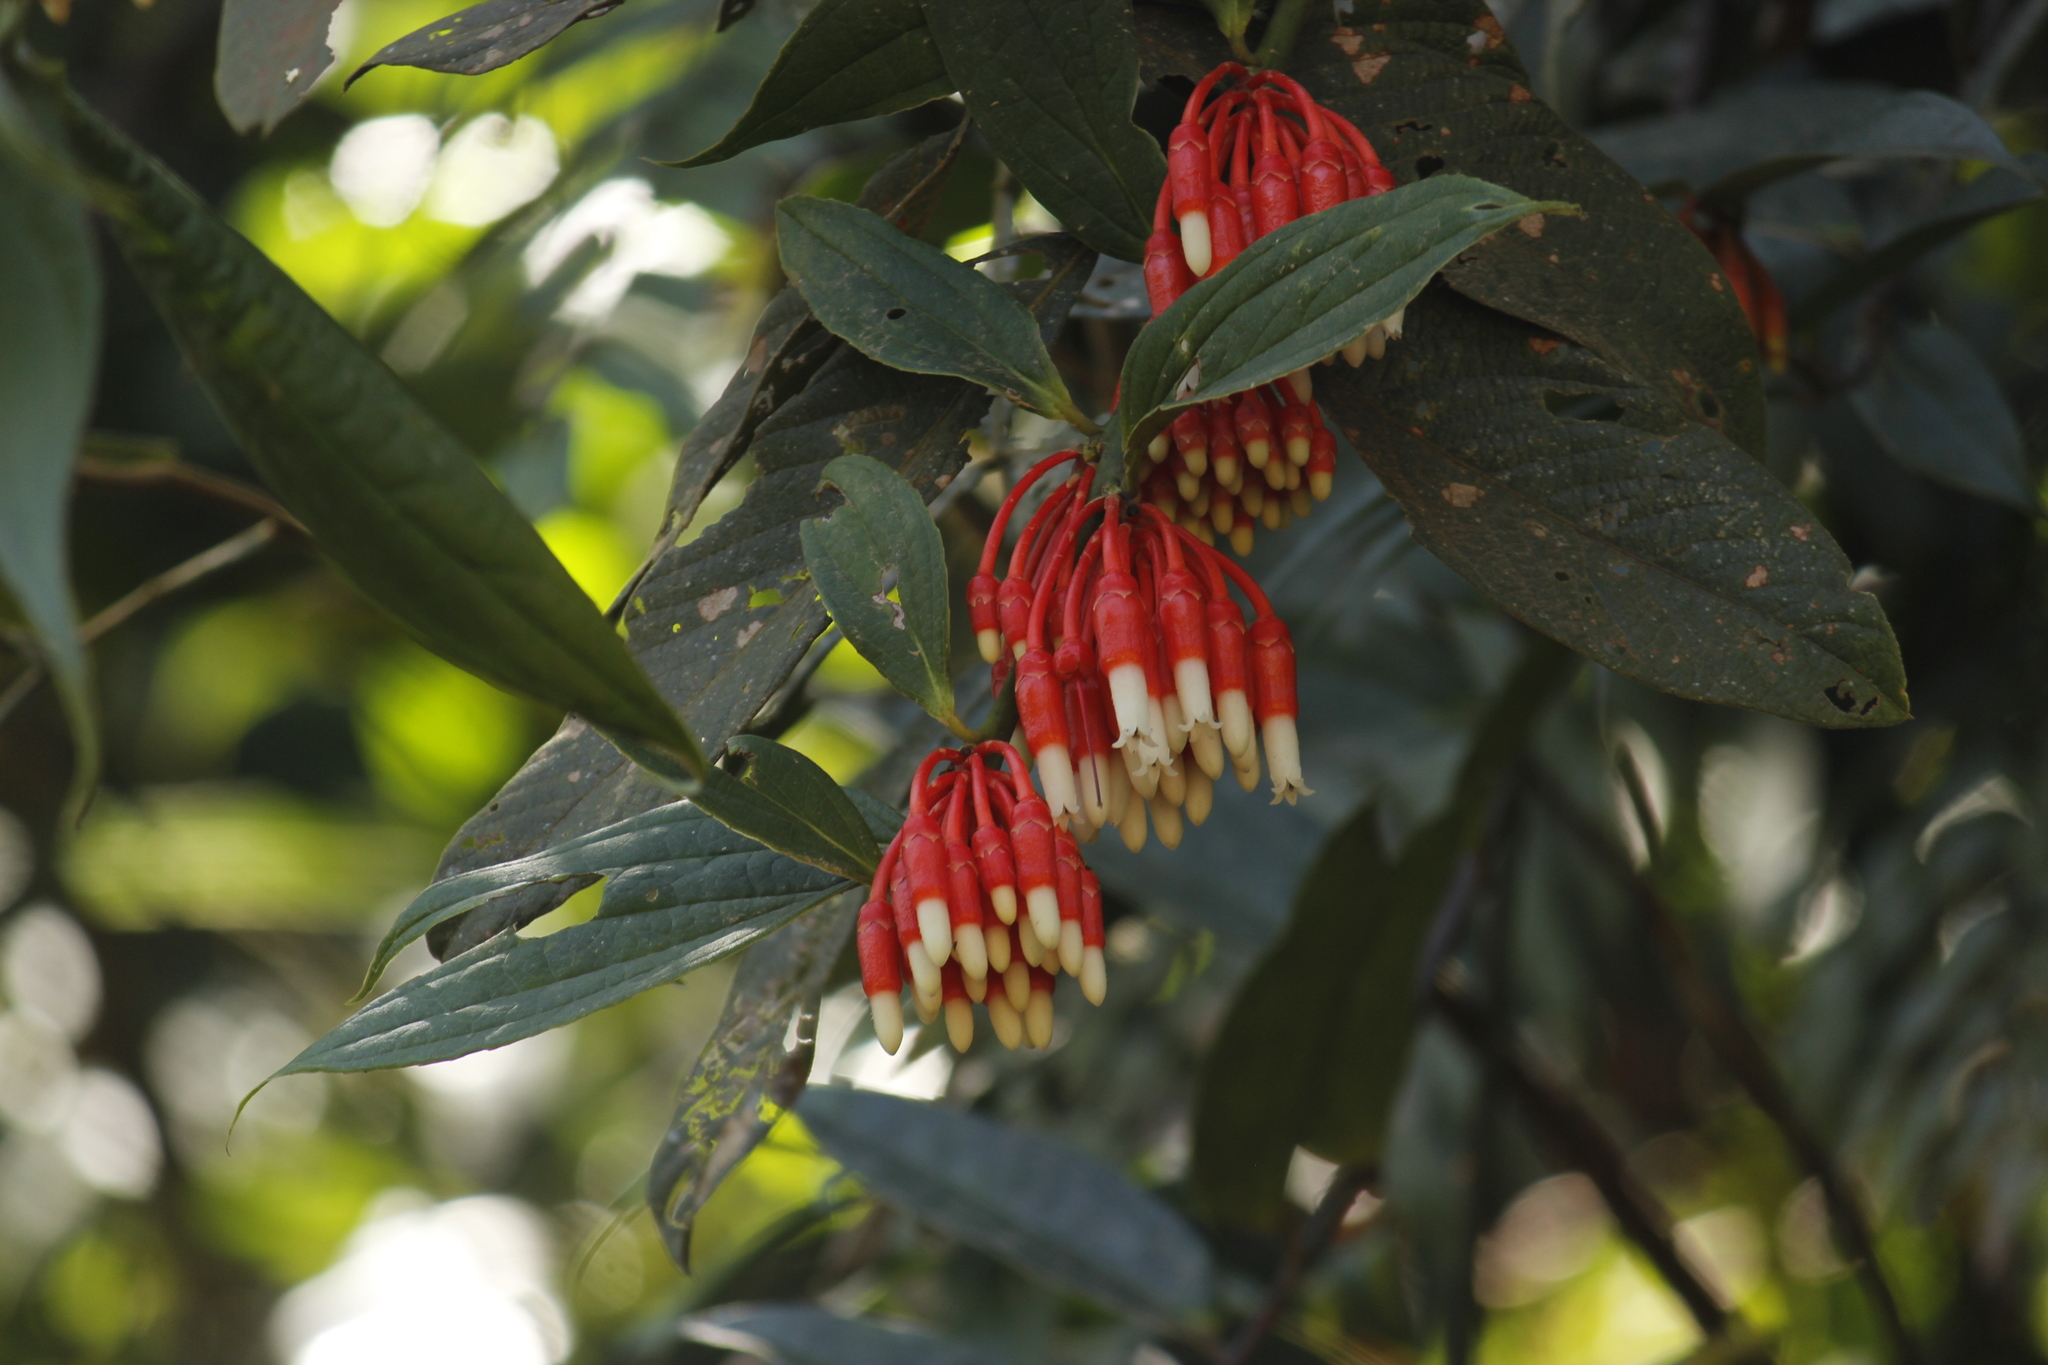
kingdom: Plantae
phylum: Tracheophyta
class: Magnoliopsida
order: Ericales
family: Ericaceae
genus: Psammisia
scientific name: Psammisia coarctata
